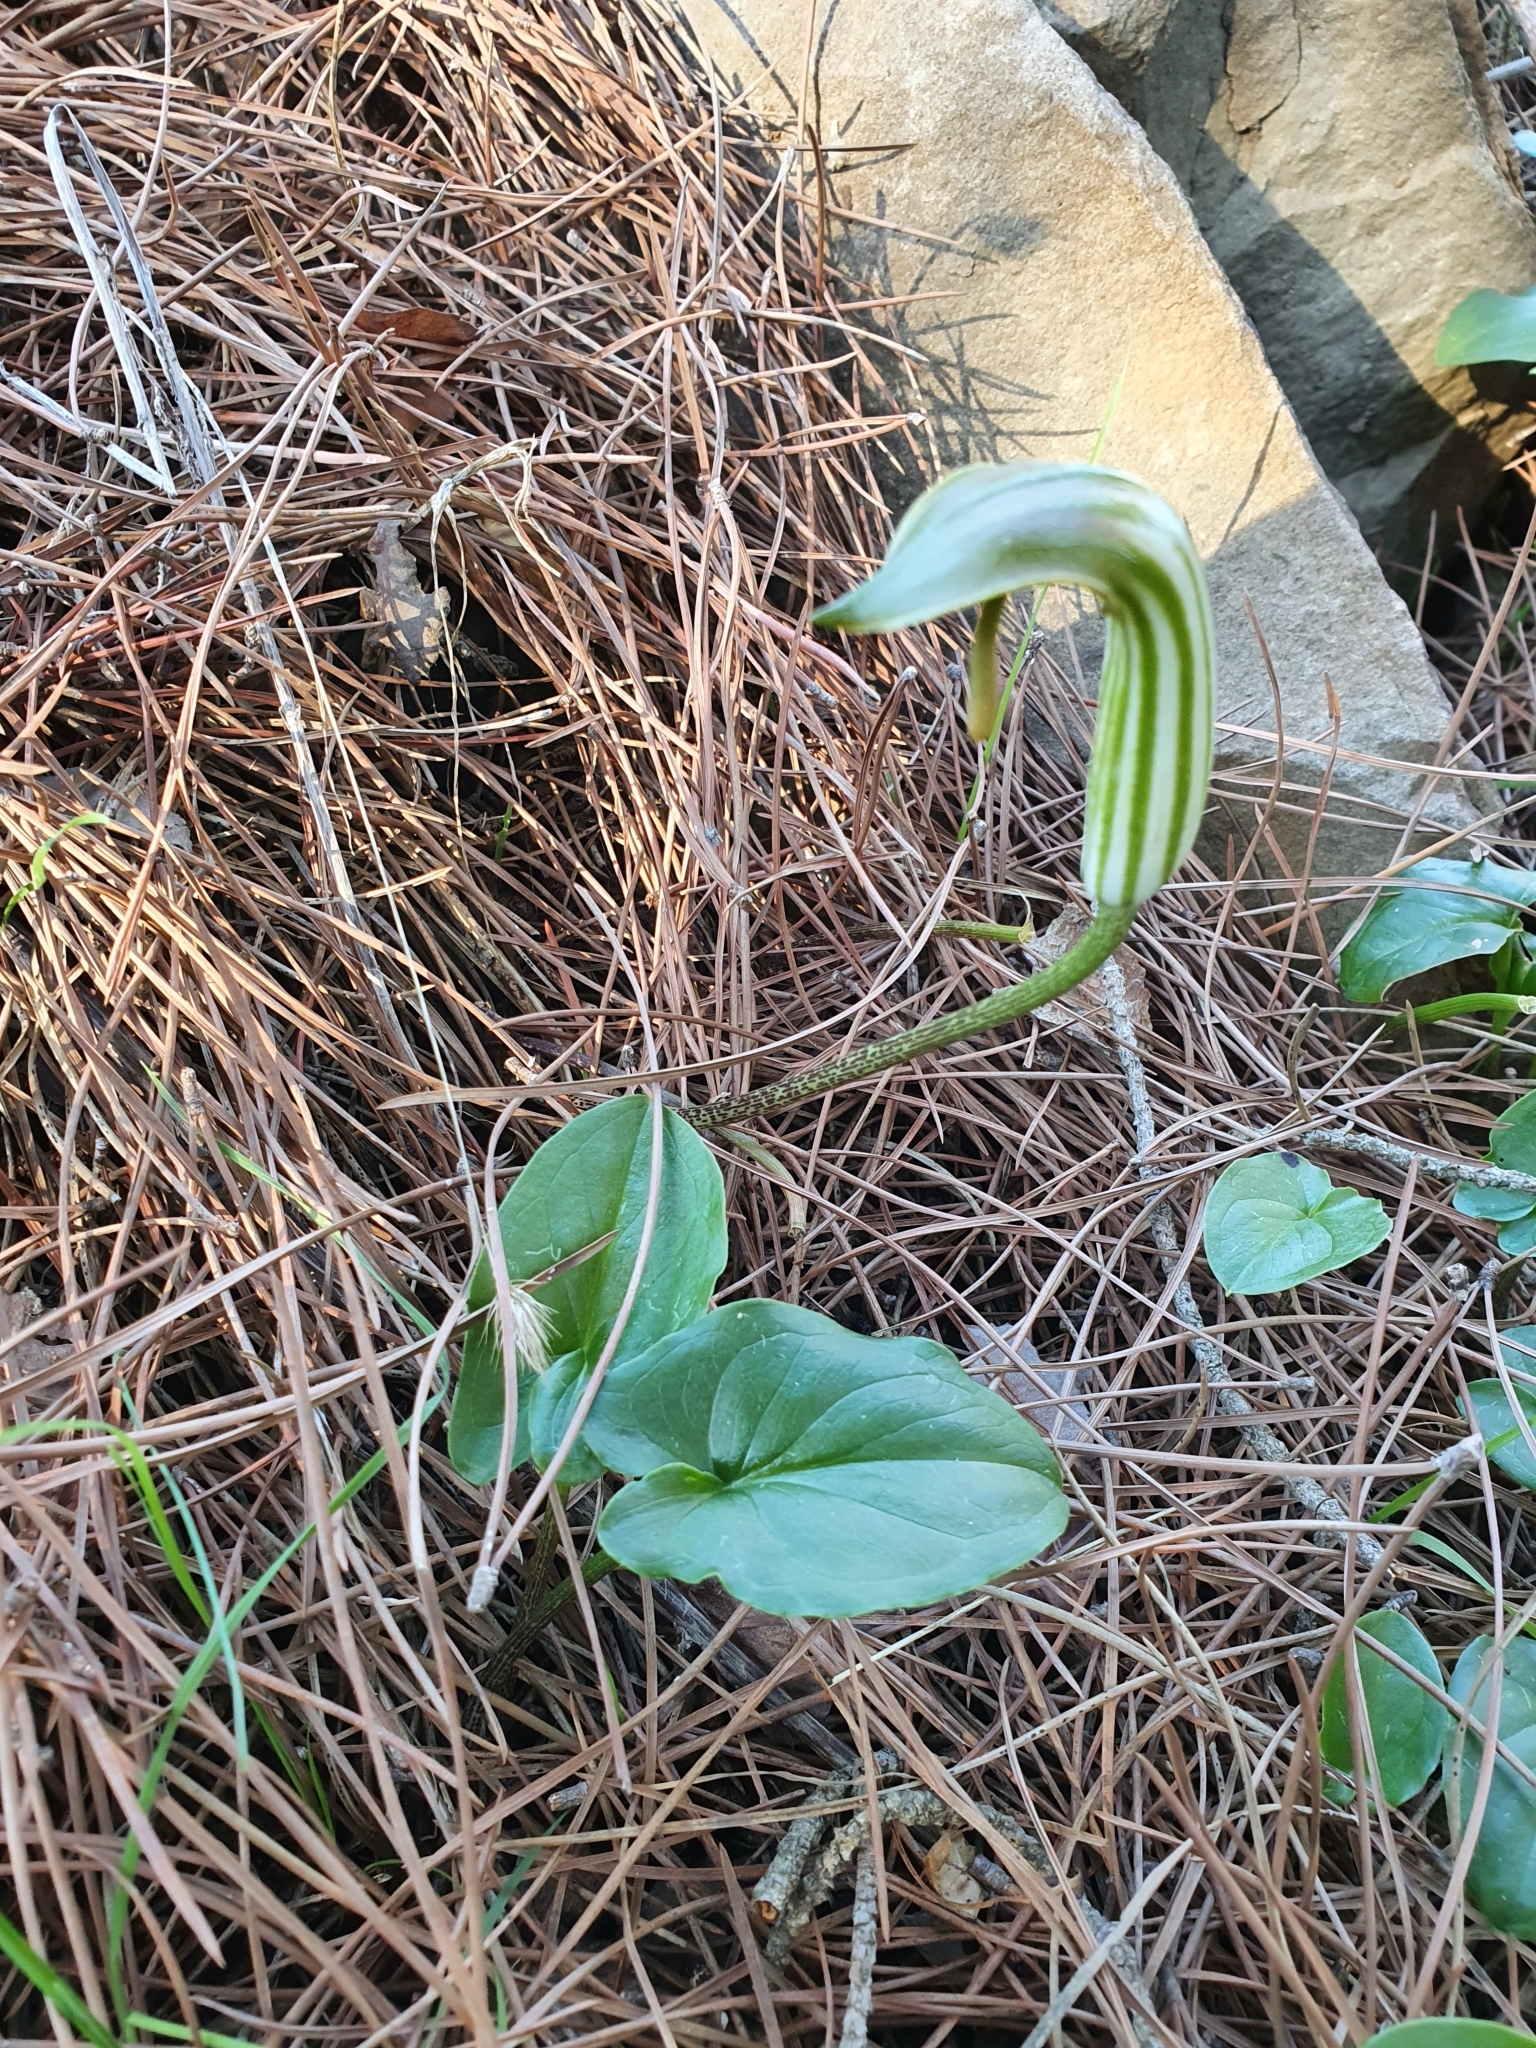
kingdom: Plantae
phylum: Tracheophyta
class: Liliopsida
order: Alismatales
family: Araceae
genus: Arisarum
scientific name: Arisarum vulgare
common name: Common arisarum
